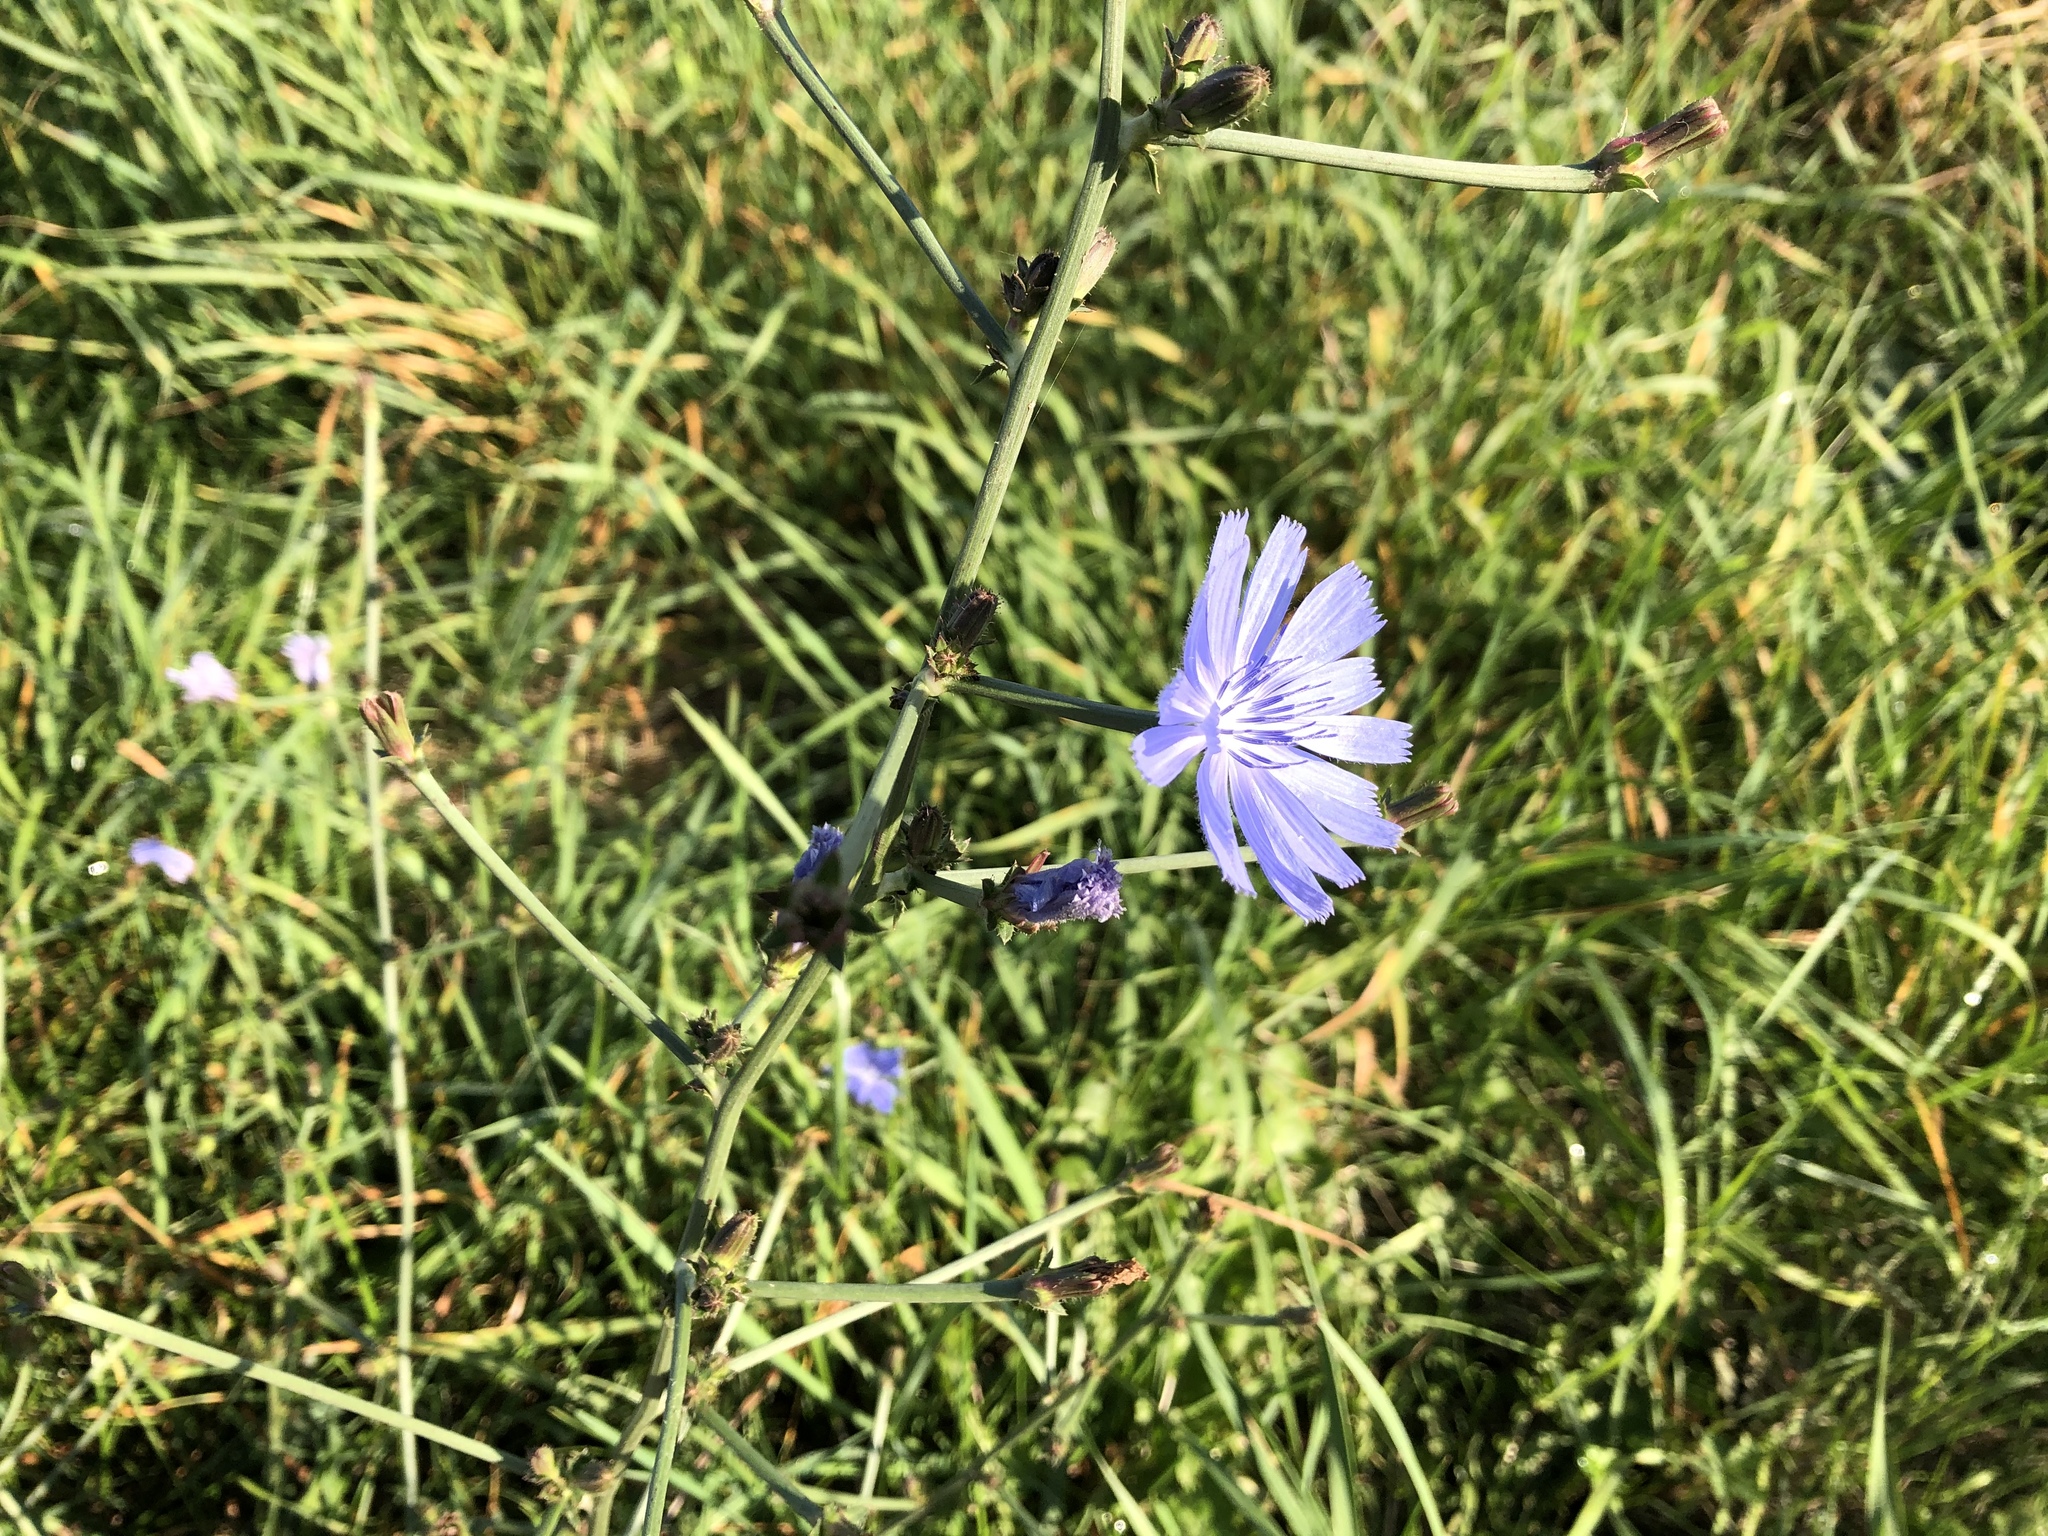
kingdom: Plantae
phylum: Tracheophyta
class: Magnoliopsida
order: Asterales
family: Asteraceae
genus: Cichorium
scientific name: Cichorium intybus
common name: Chicory
